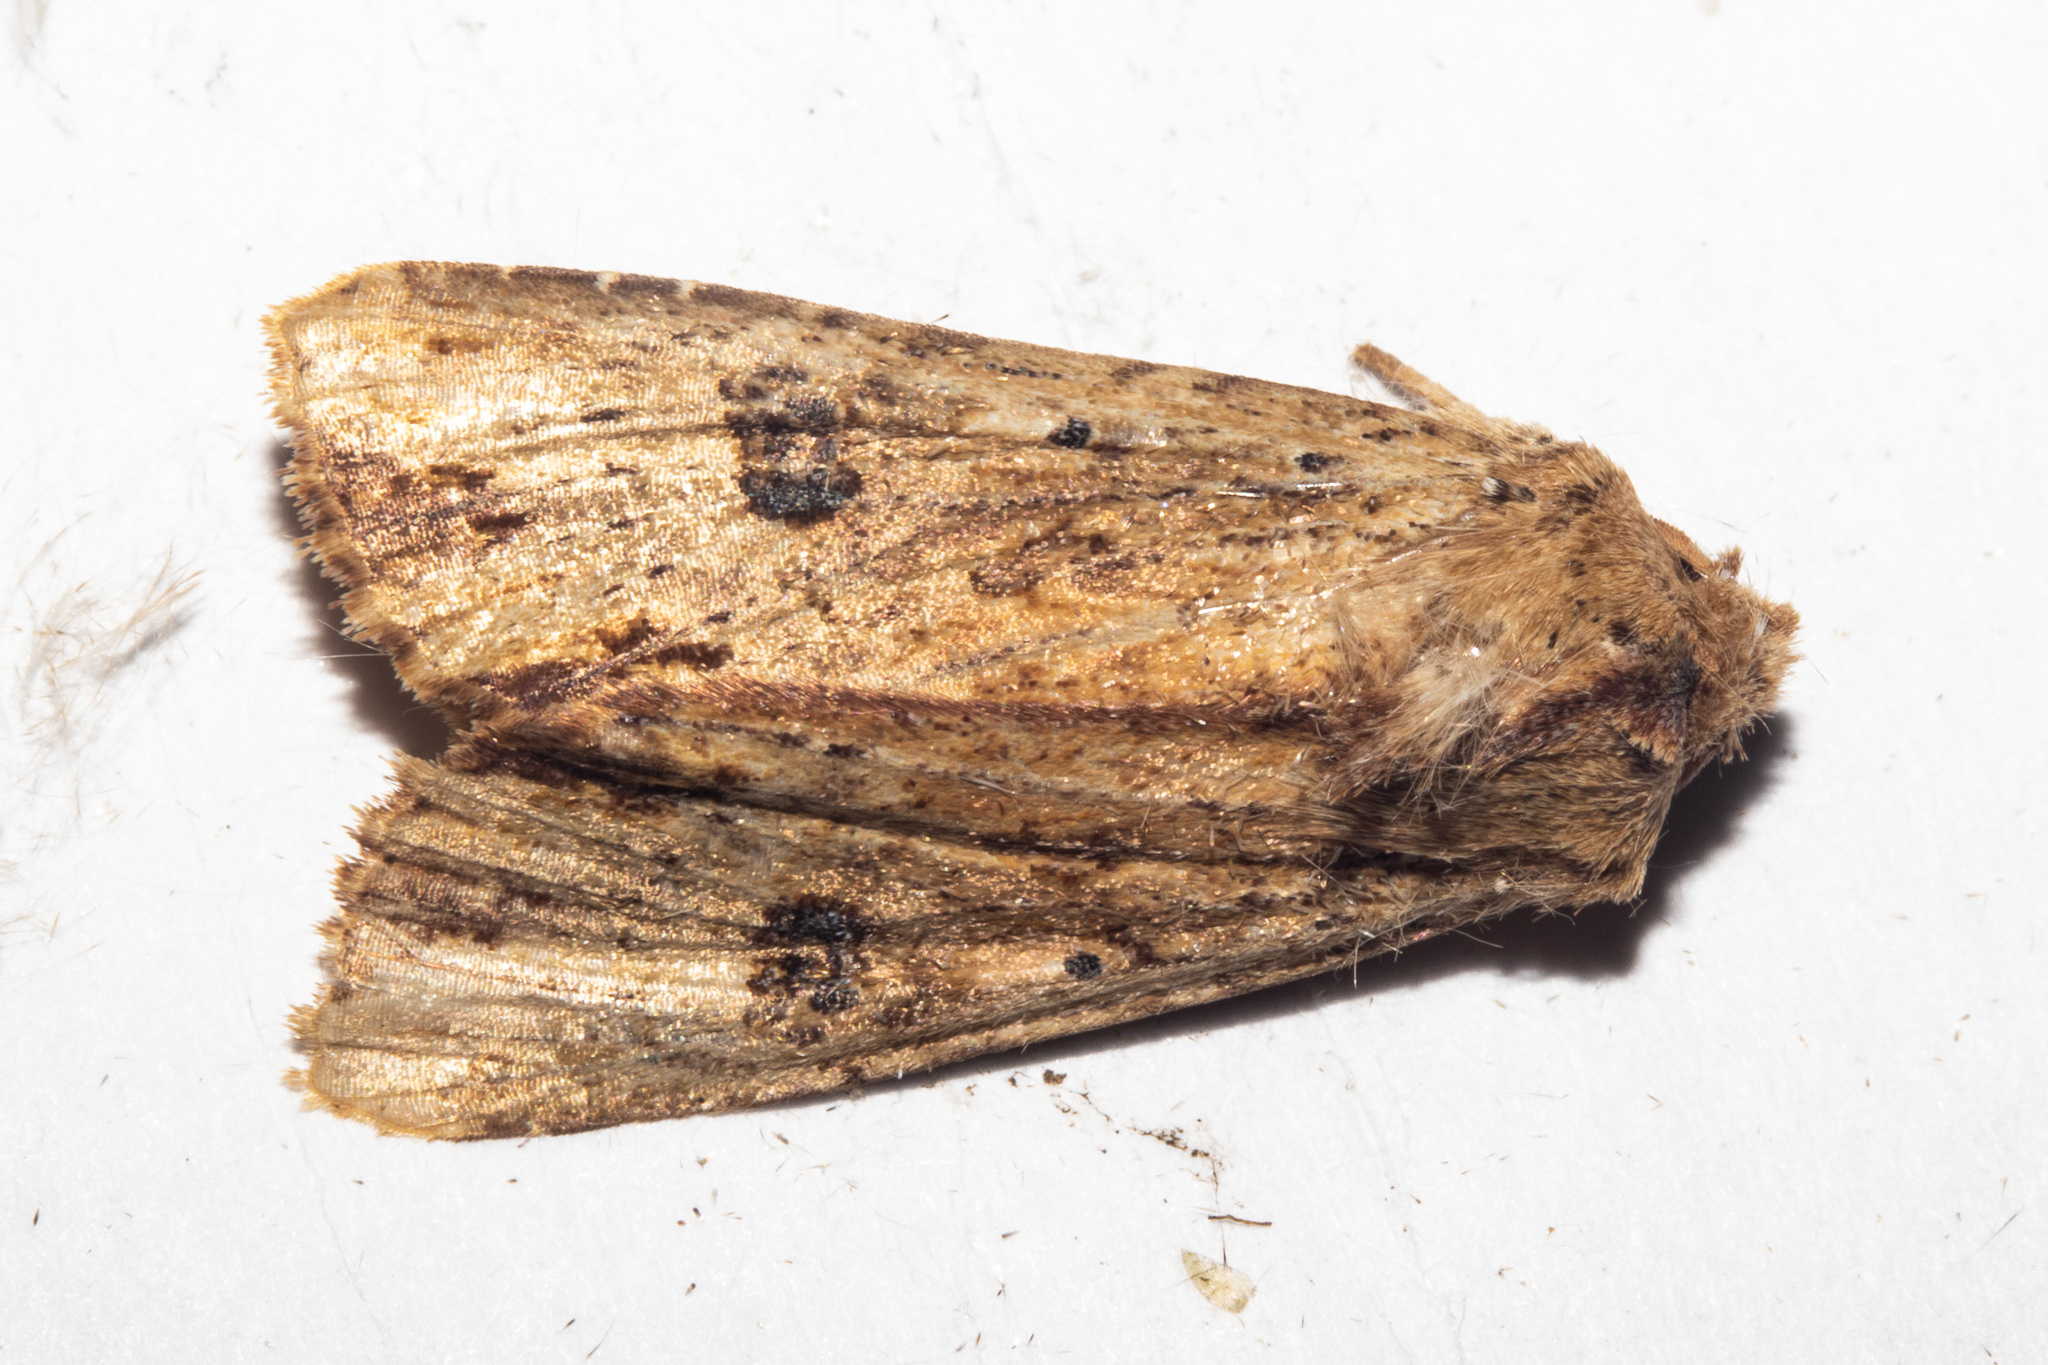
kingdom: Animalia
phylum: Arthropoda
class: Insecta
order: Lepidoptera
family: Noctuidae
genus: Ichneutica
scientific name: Ichneutica
